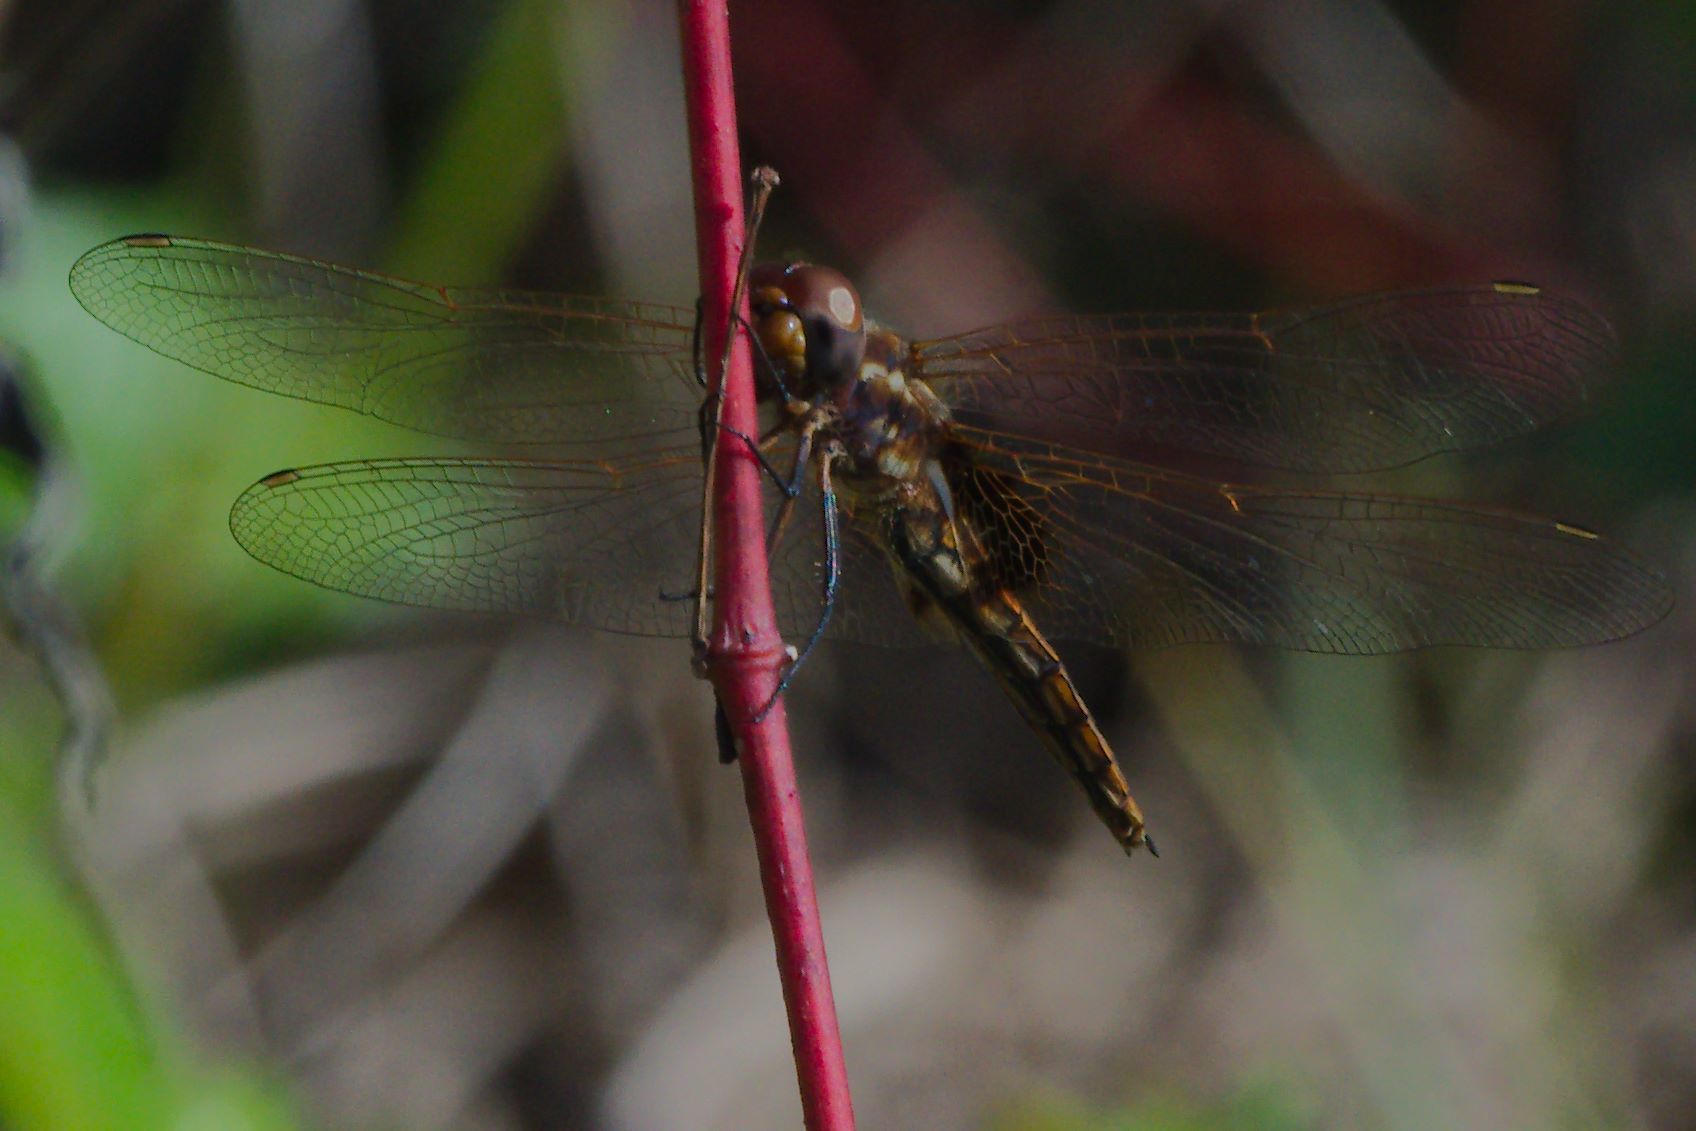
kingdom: Animalia
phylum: Arthropoda
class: Insecta
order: Odonata
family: Libellulidae
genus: Miathyria
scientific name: Miathyria marcella
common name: Hyacinth glider
